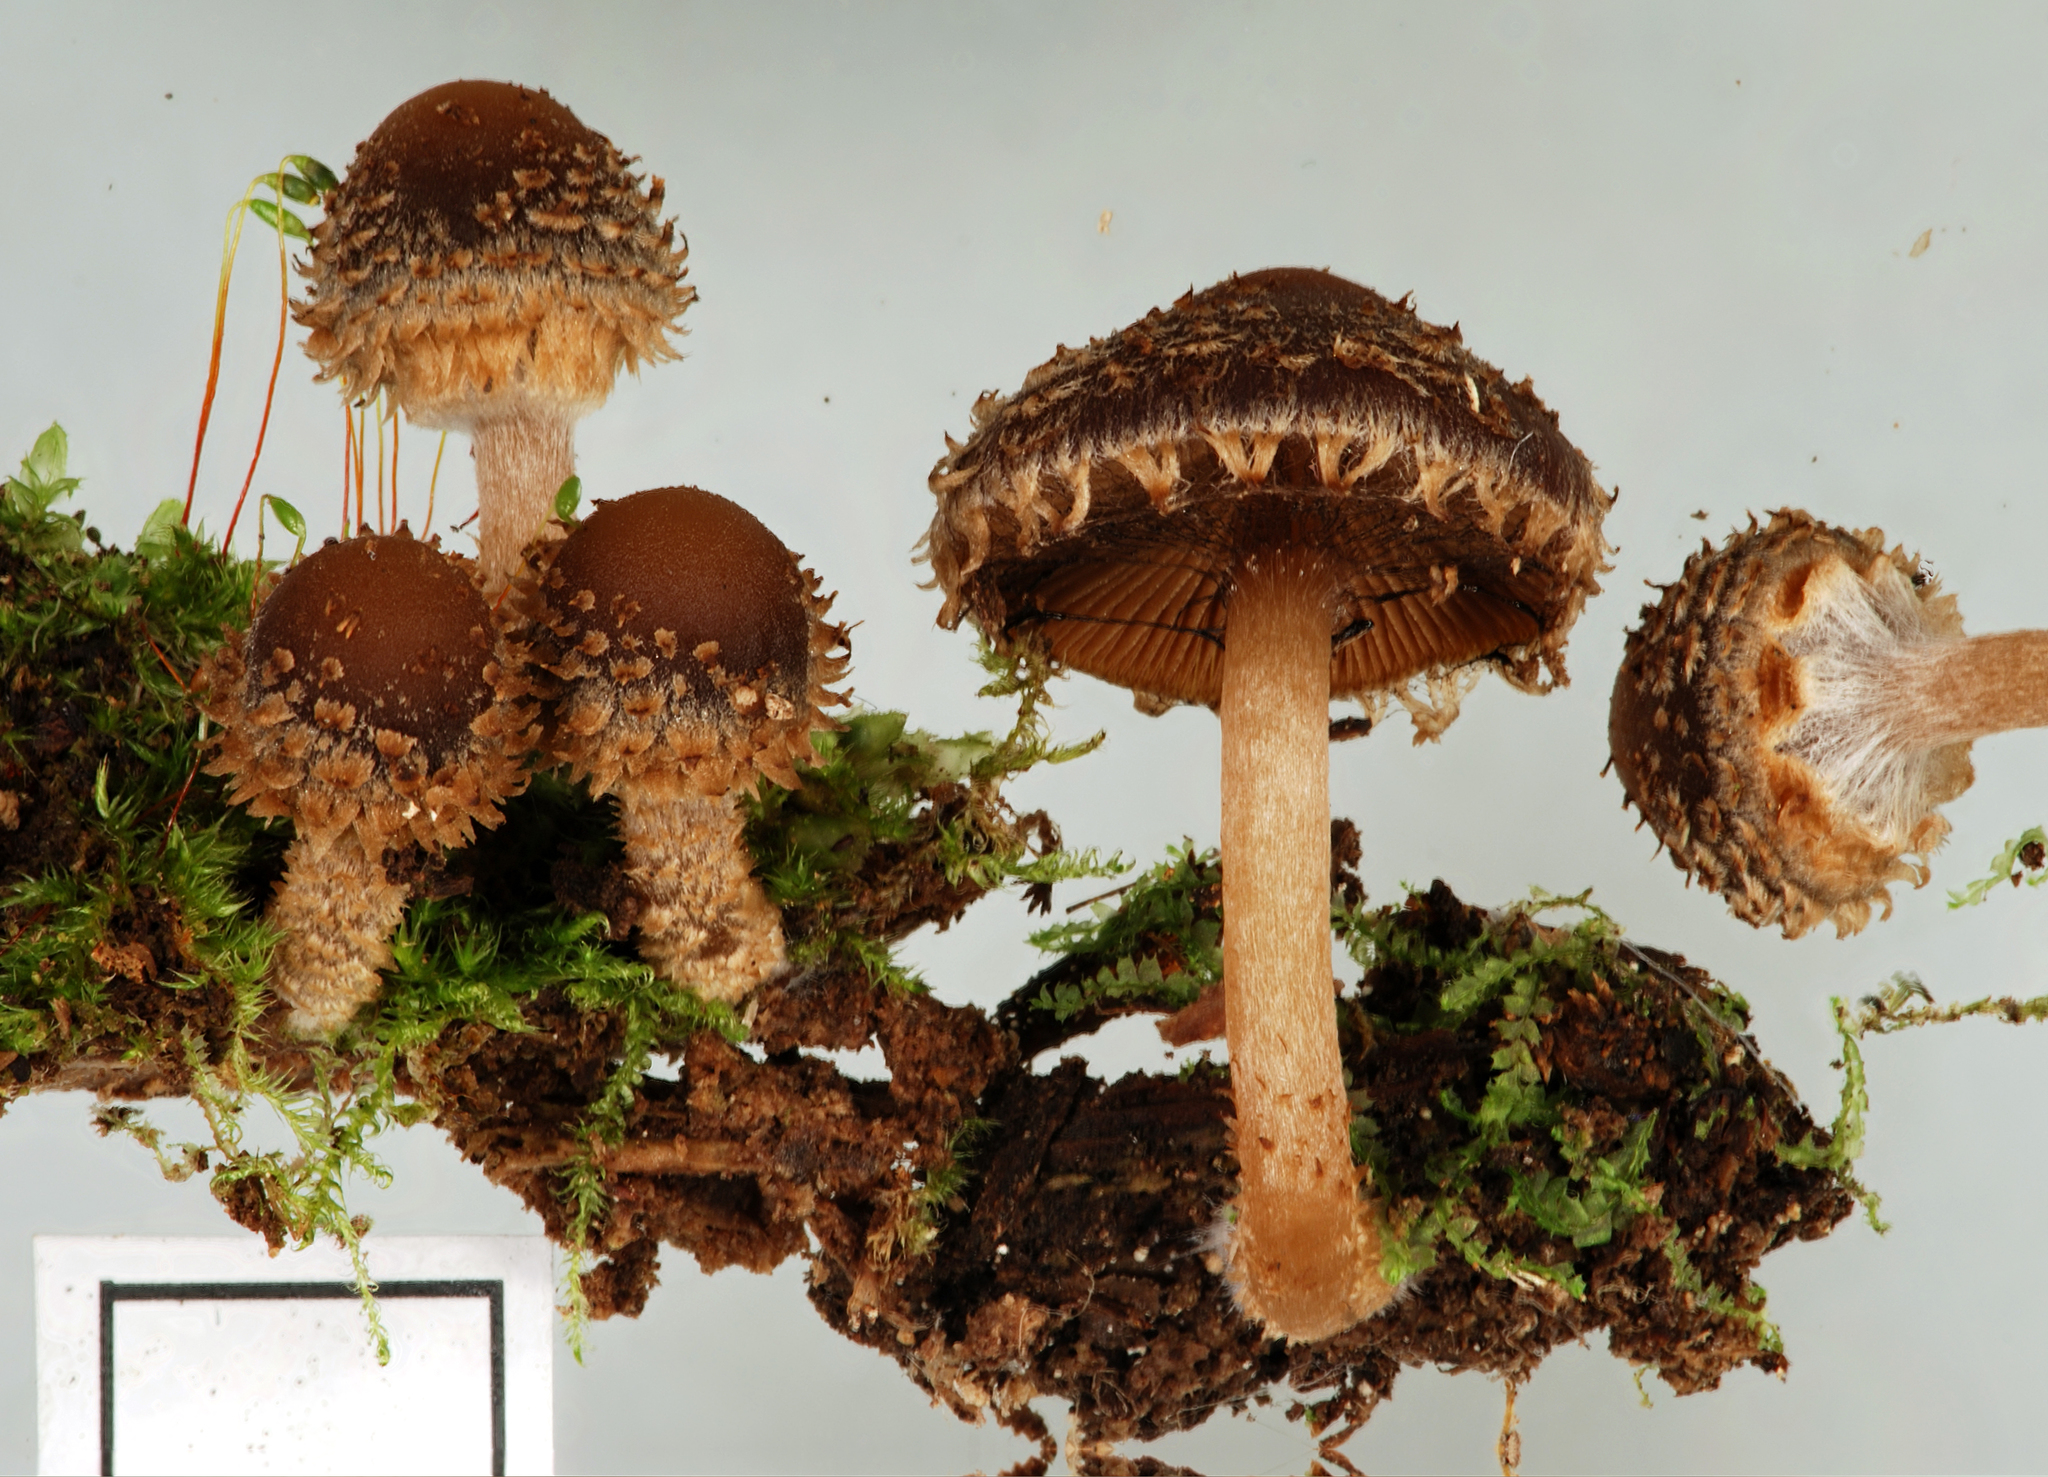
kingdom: Fungi
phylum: Basidiomycota
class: Agaricomycetes
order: Agaricales
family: Psathyrellaceae
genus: Psathyrella
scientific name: Psathyrella echinata
